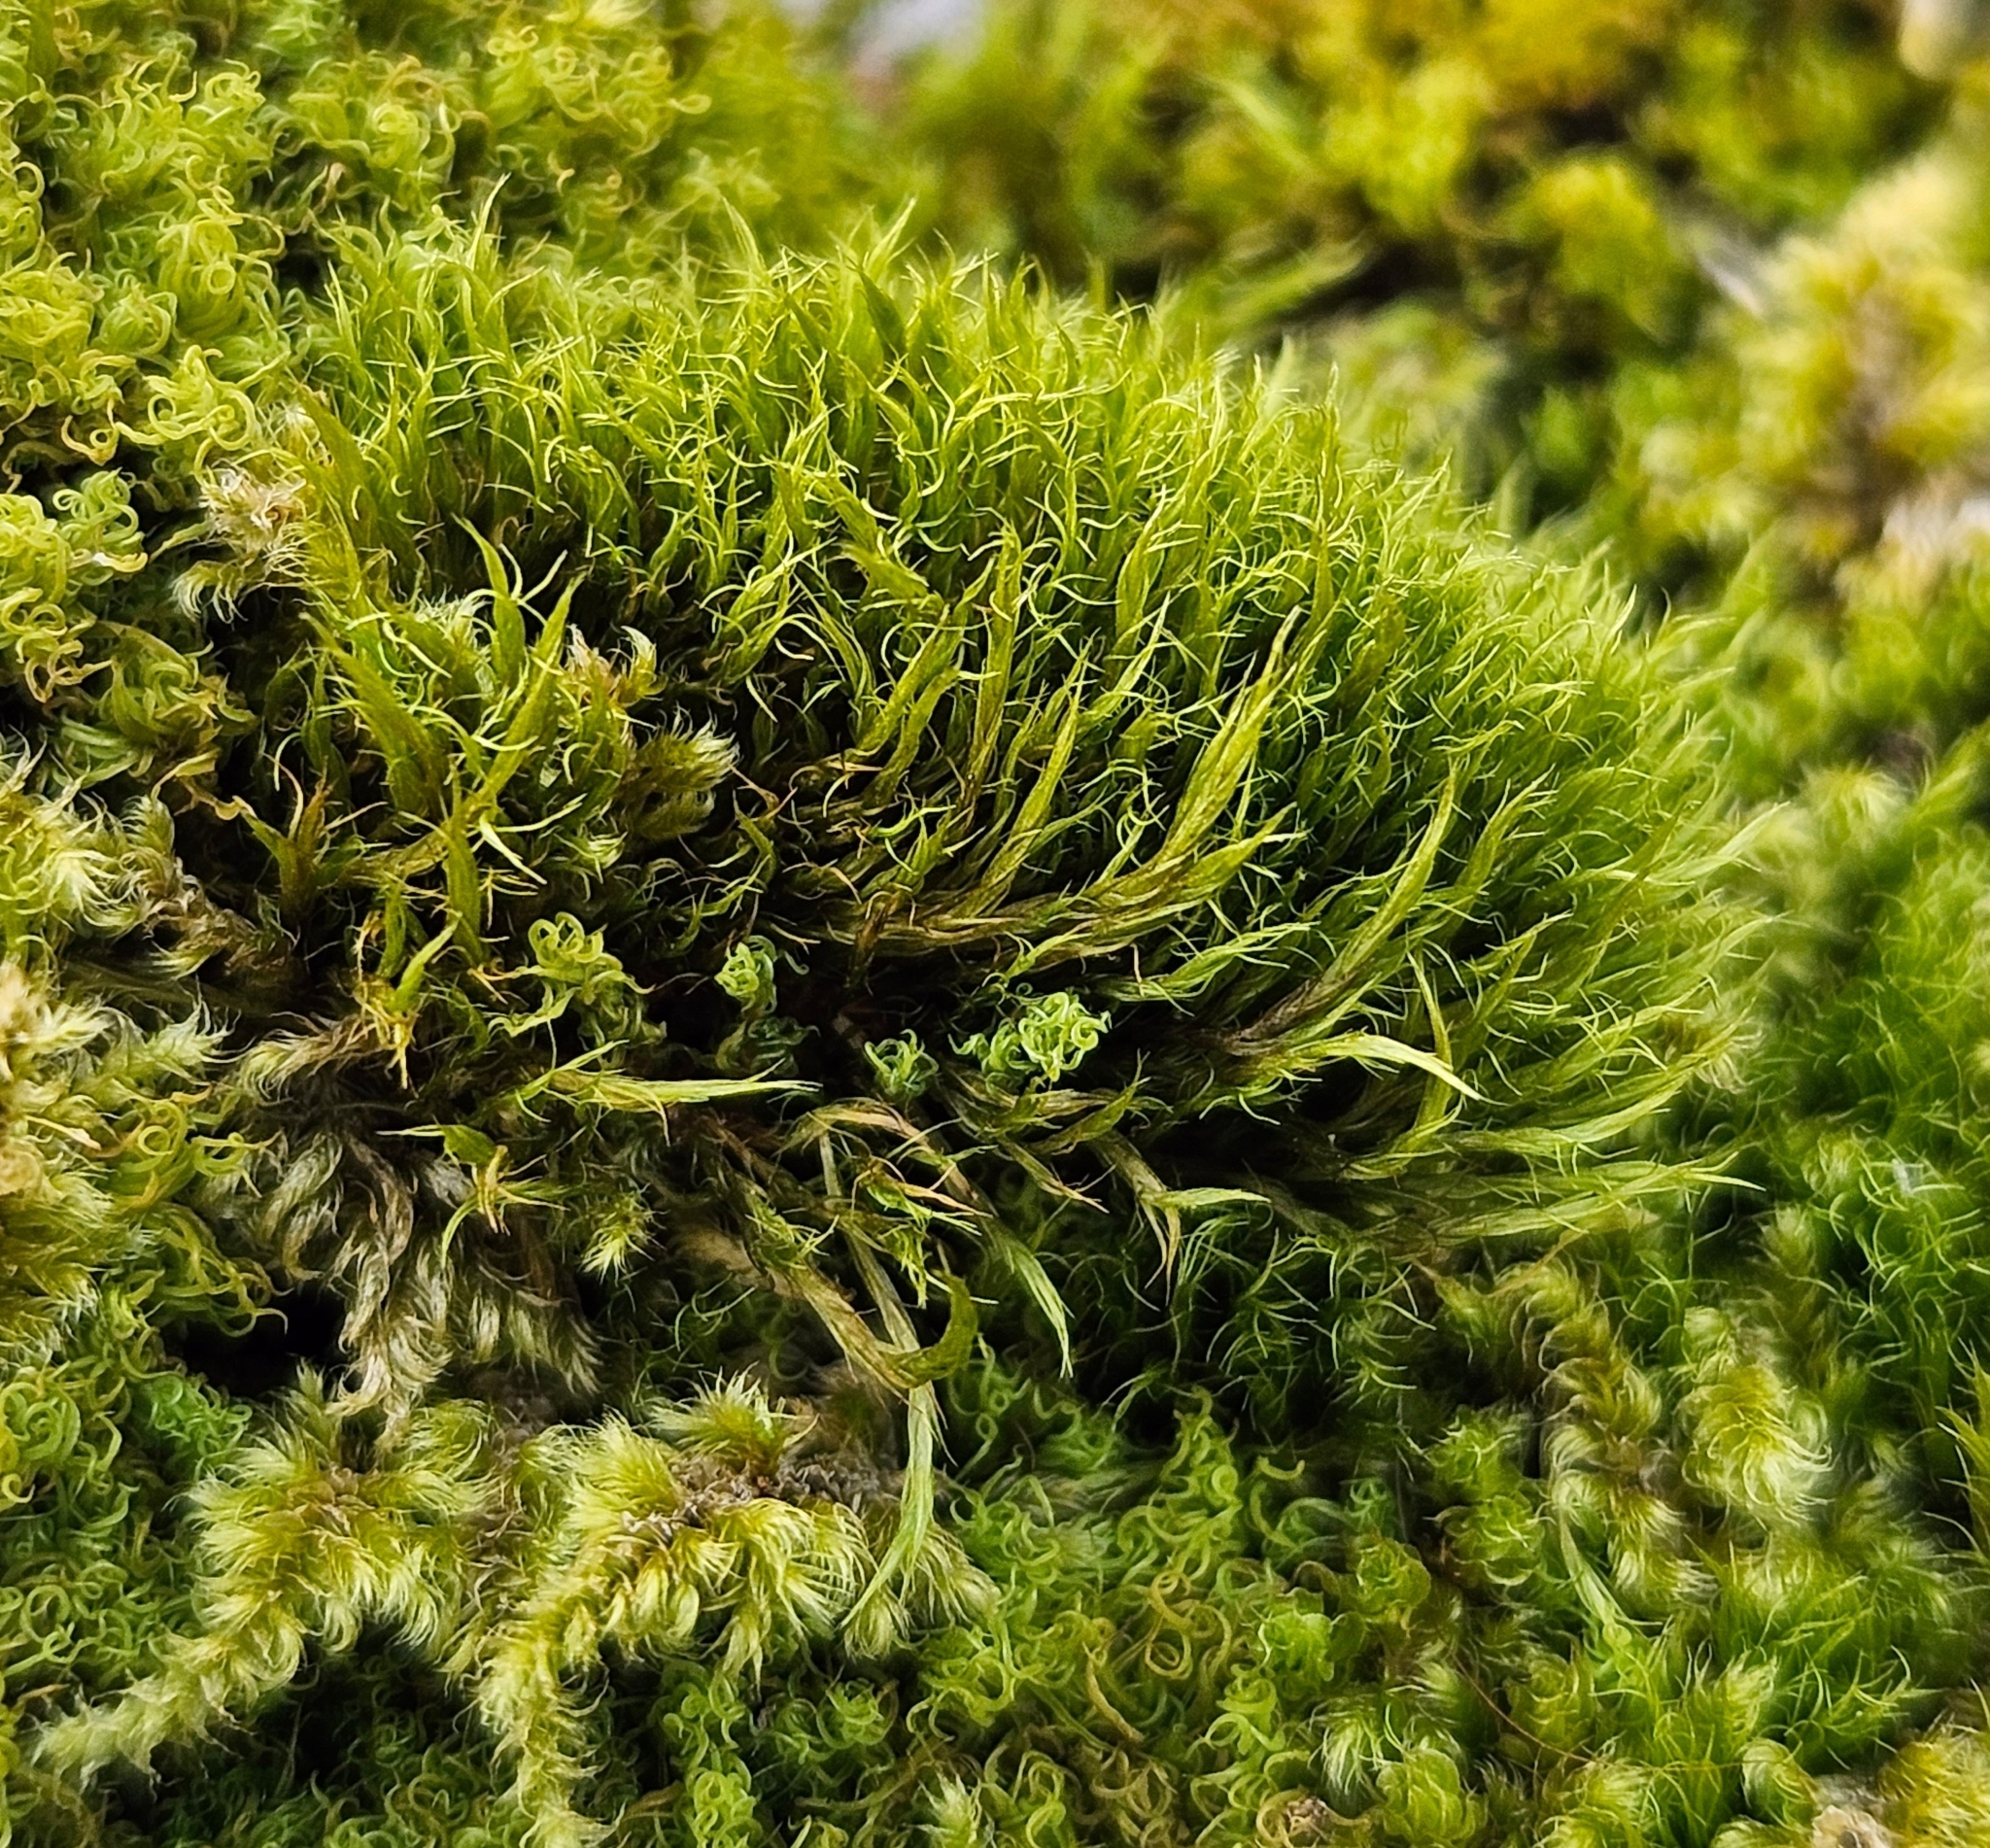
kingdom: Plantae
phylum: Bryophyta
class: Bryopsida
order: Scouleriales
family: Flexitrichaceae
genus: Flexitrichum
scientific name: Flexitrichum flexicaule
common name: Bendy ditrichum
